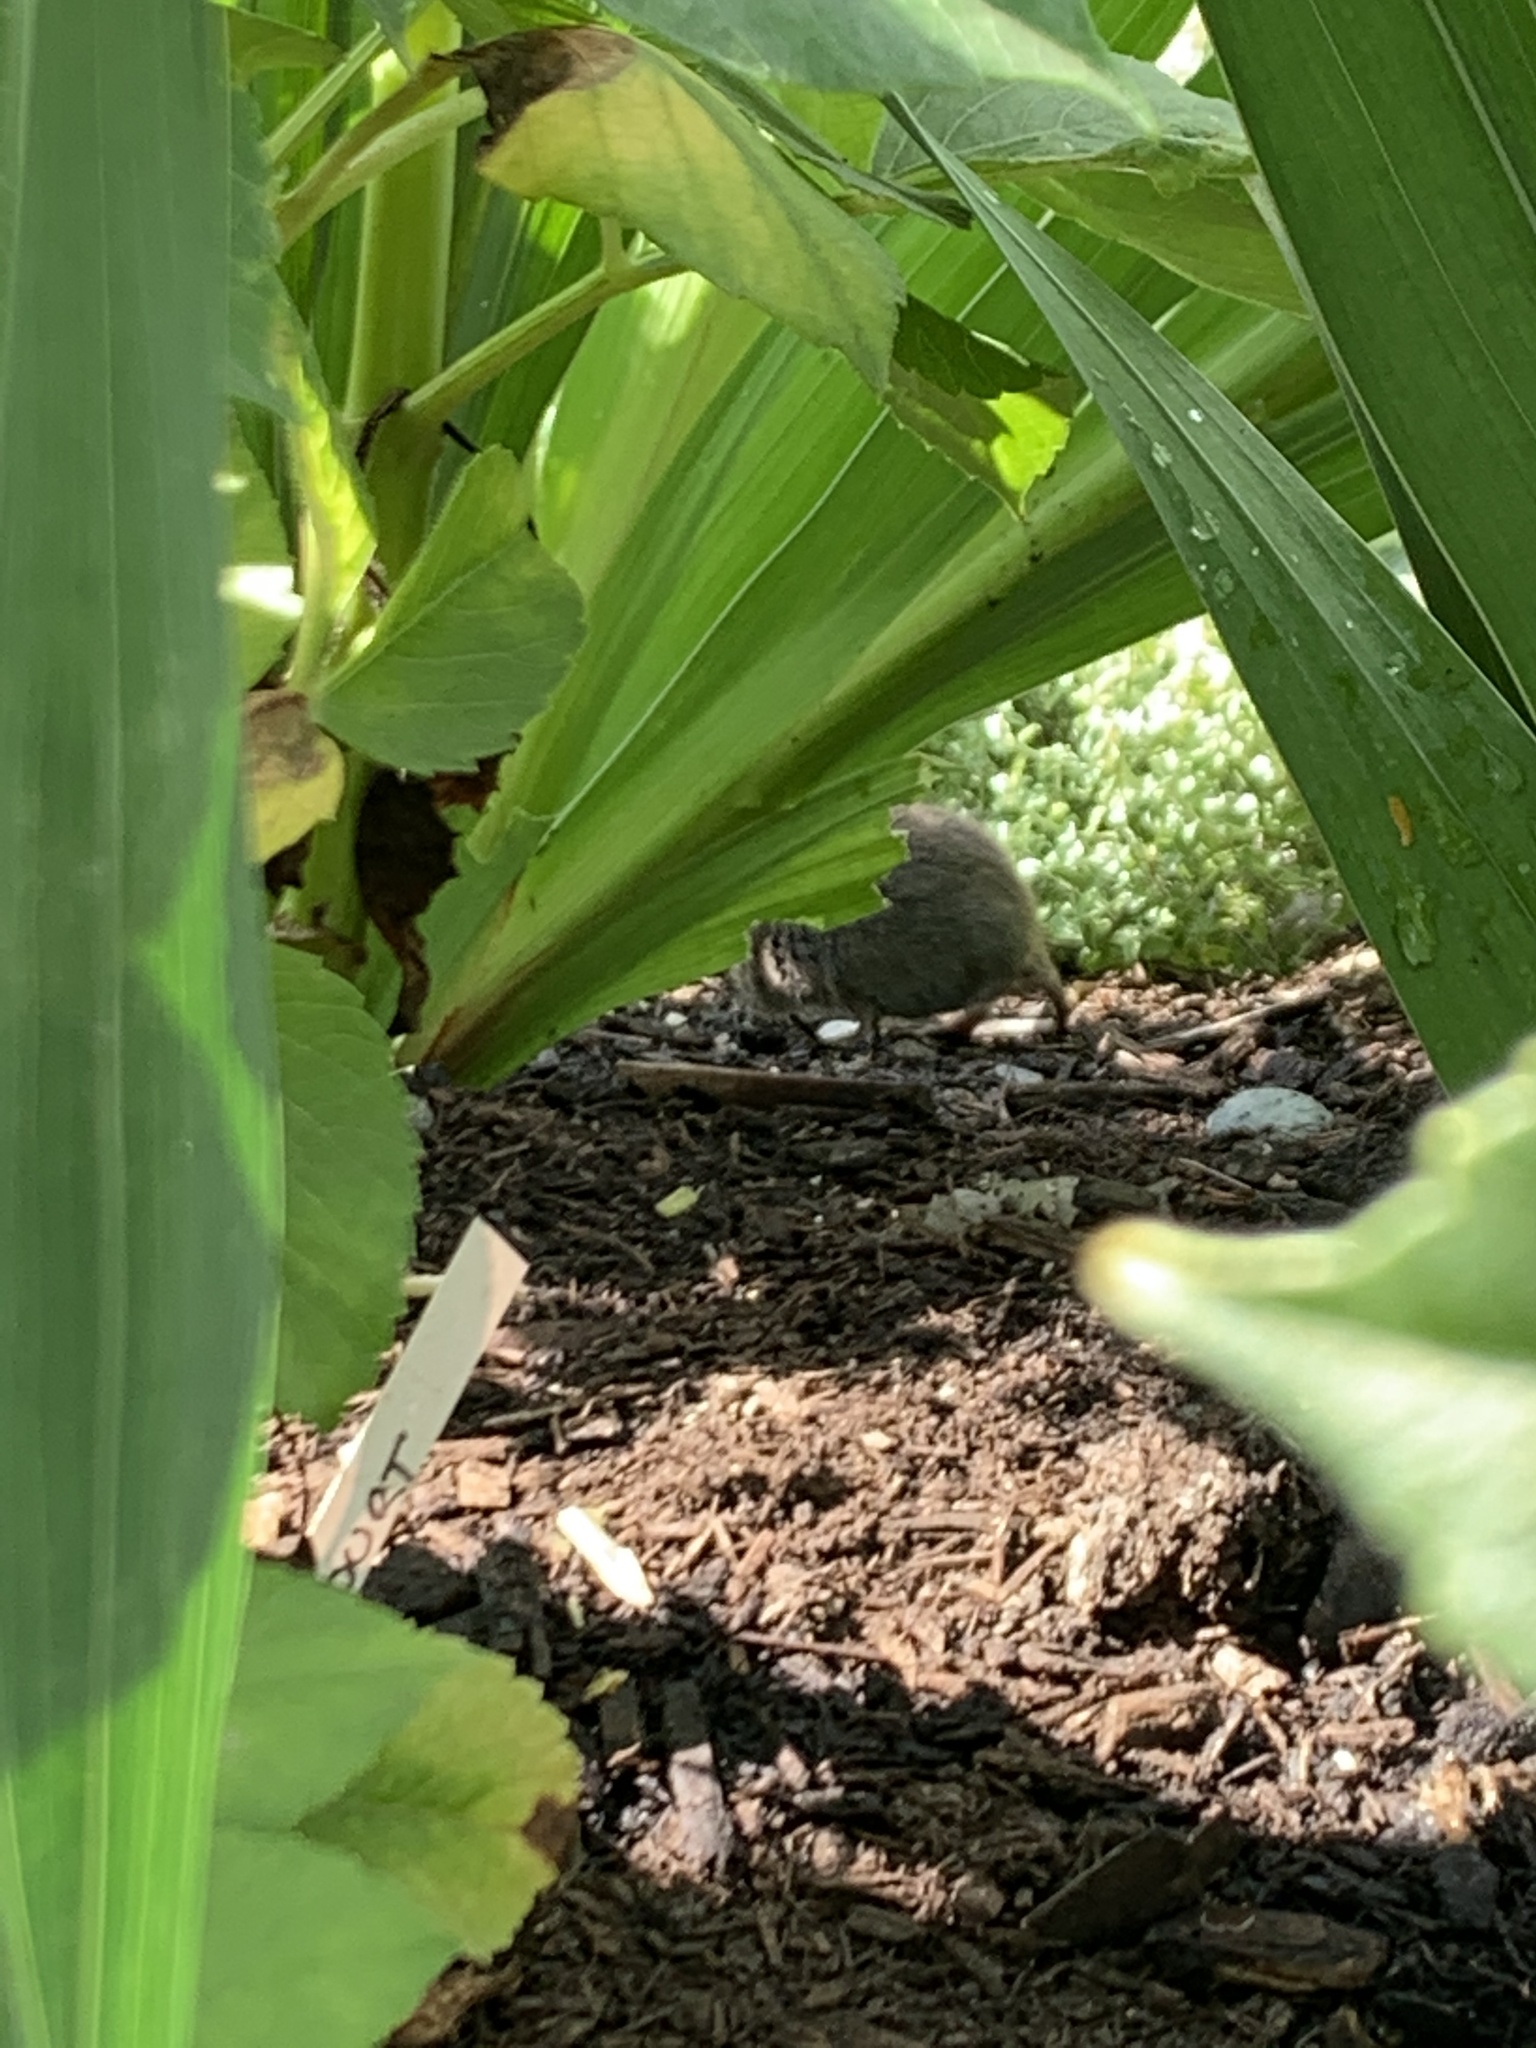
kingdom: Animalia
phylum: Chordata
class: Mammalia
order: Rodentia
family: Cricetidae
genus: Microtus
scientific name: Microtus pennsylvanicus
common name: Meadow vole
